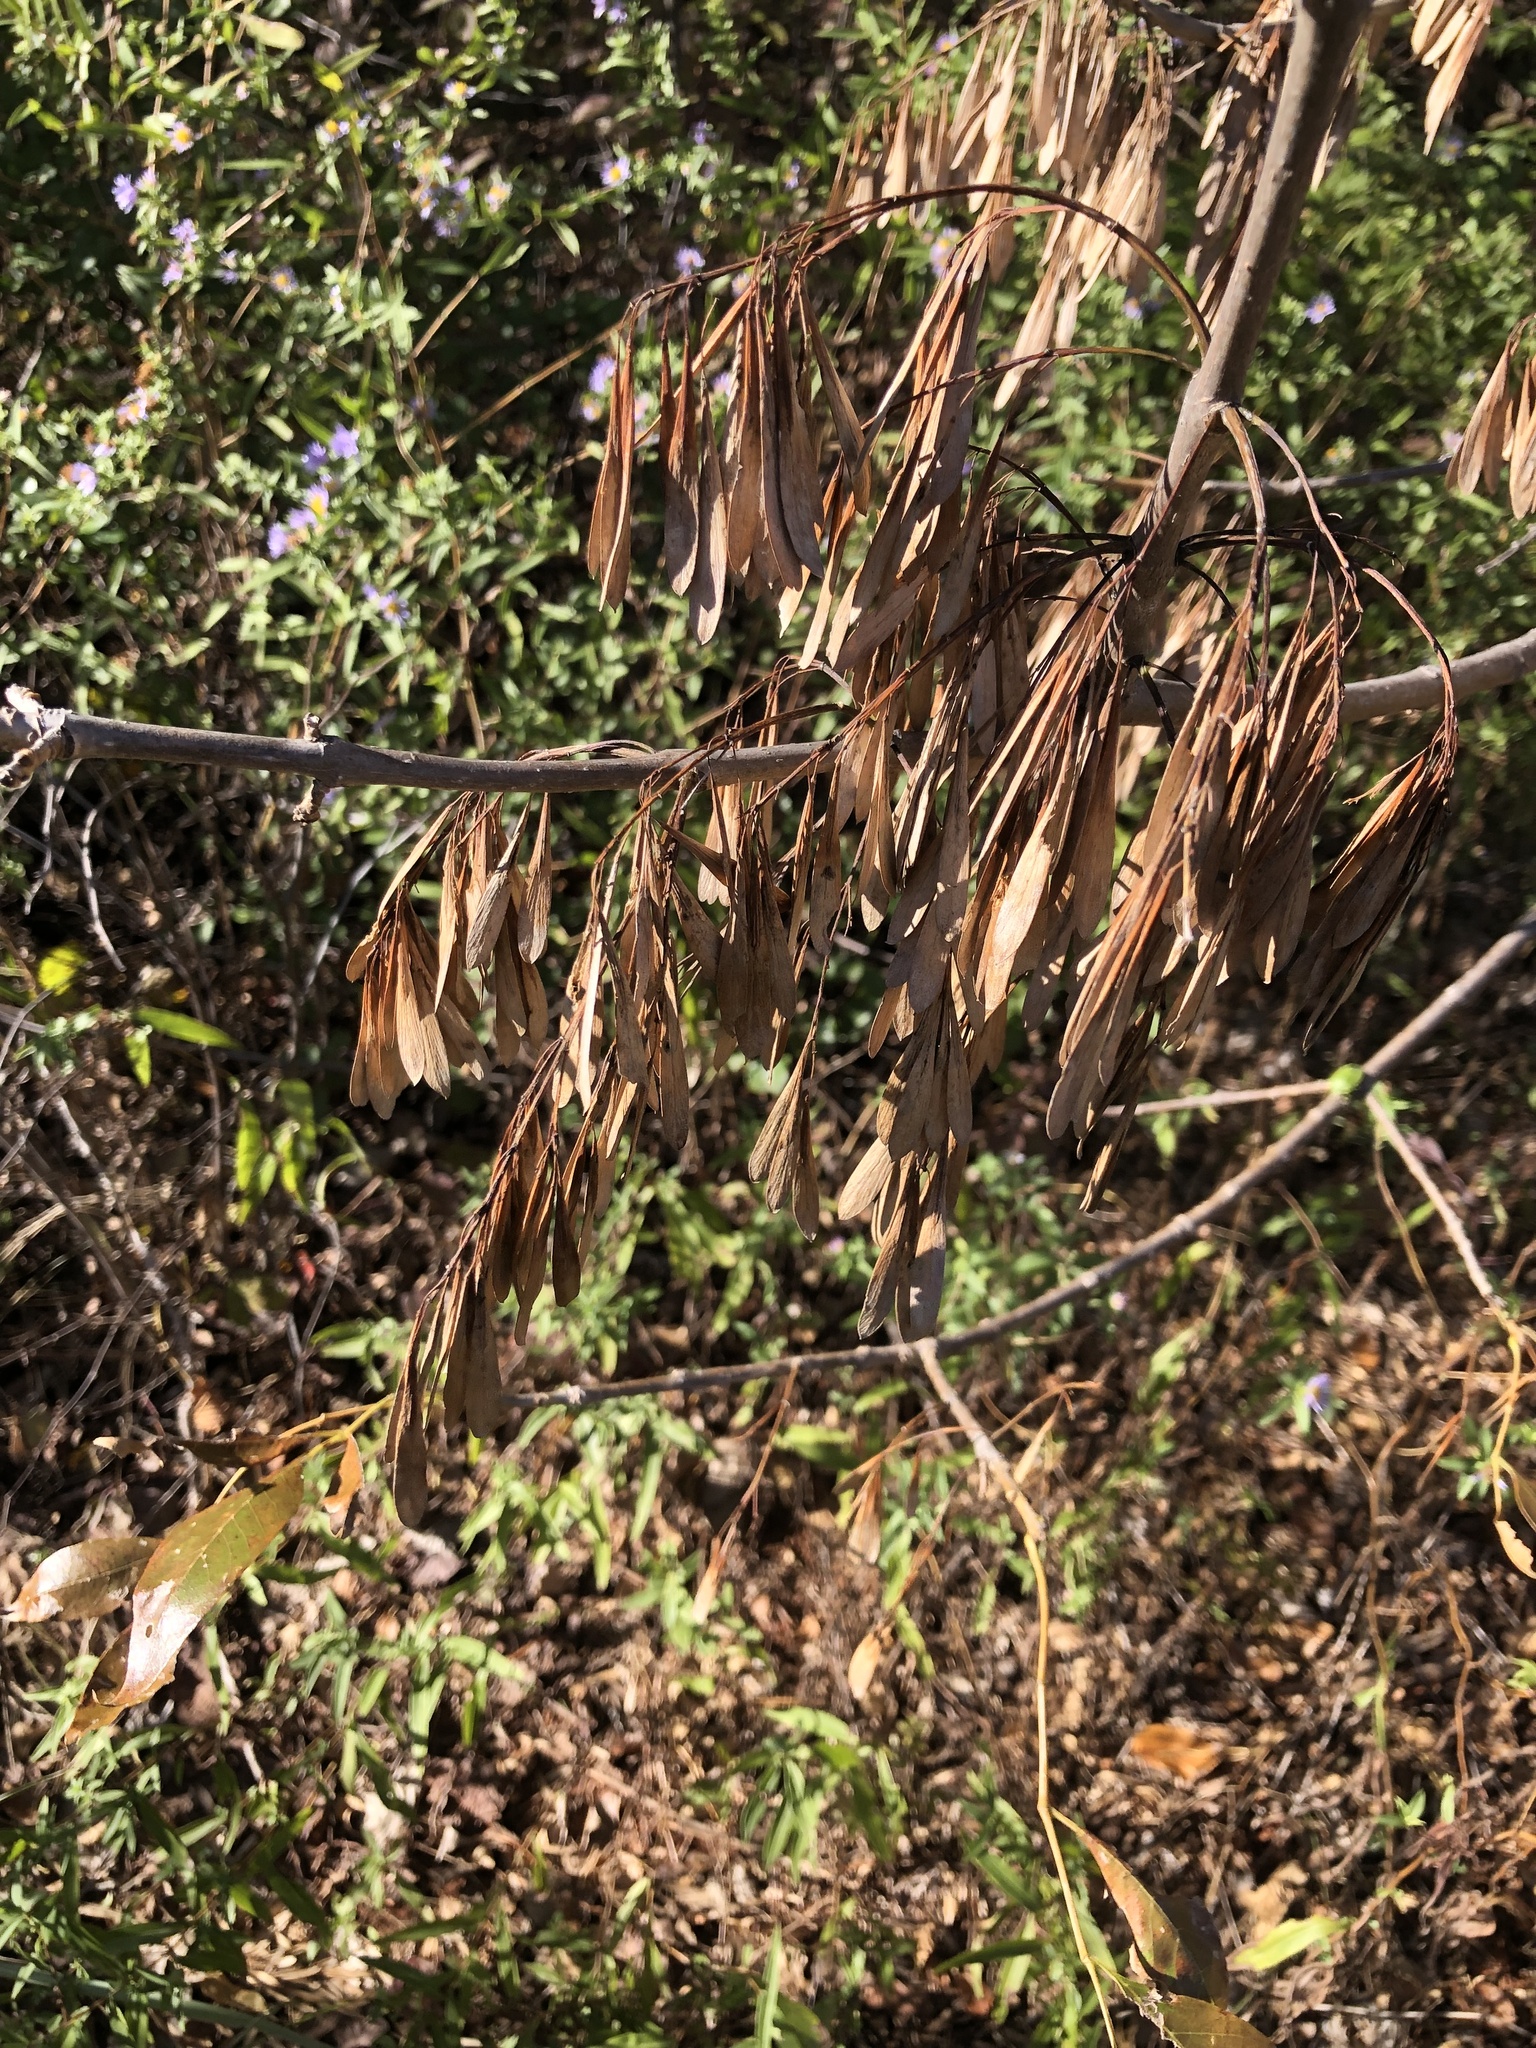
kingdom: Plantae
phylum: Tracheophyta
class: Magnoliopsida
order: Fabales
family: Fabaceae
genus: Cercis
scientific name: Cercis canadensis
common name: Eastern redbud
